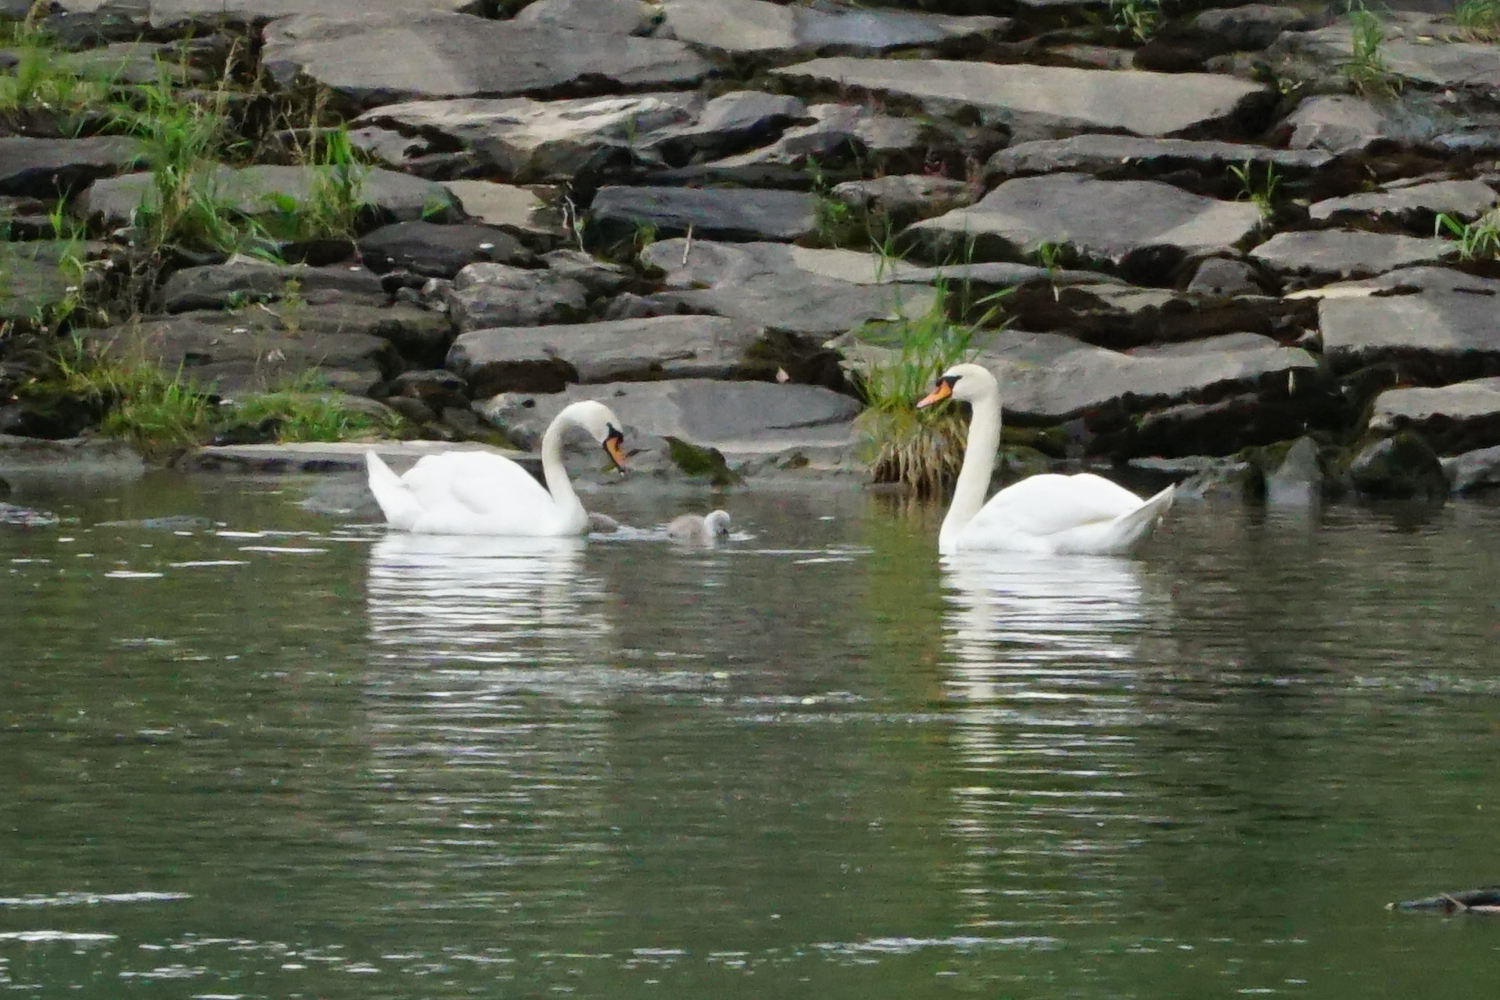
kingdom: Animalia
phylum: Chordata
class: Aves
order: Anseriformes
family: Anatidae
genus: Cygnus
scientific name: Cygnus olor
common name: Mute swan
